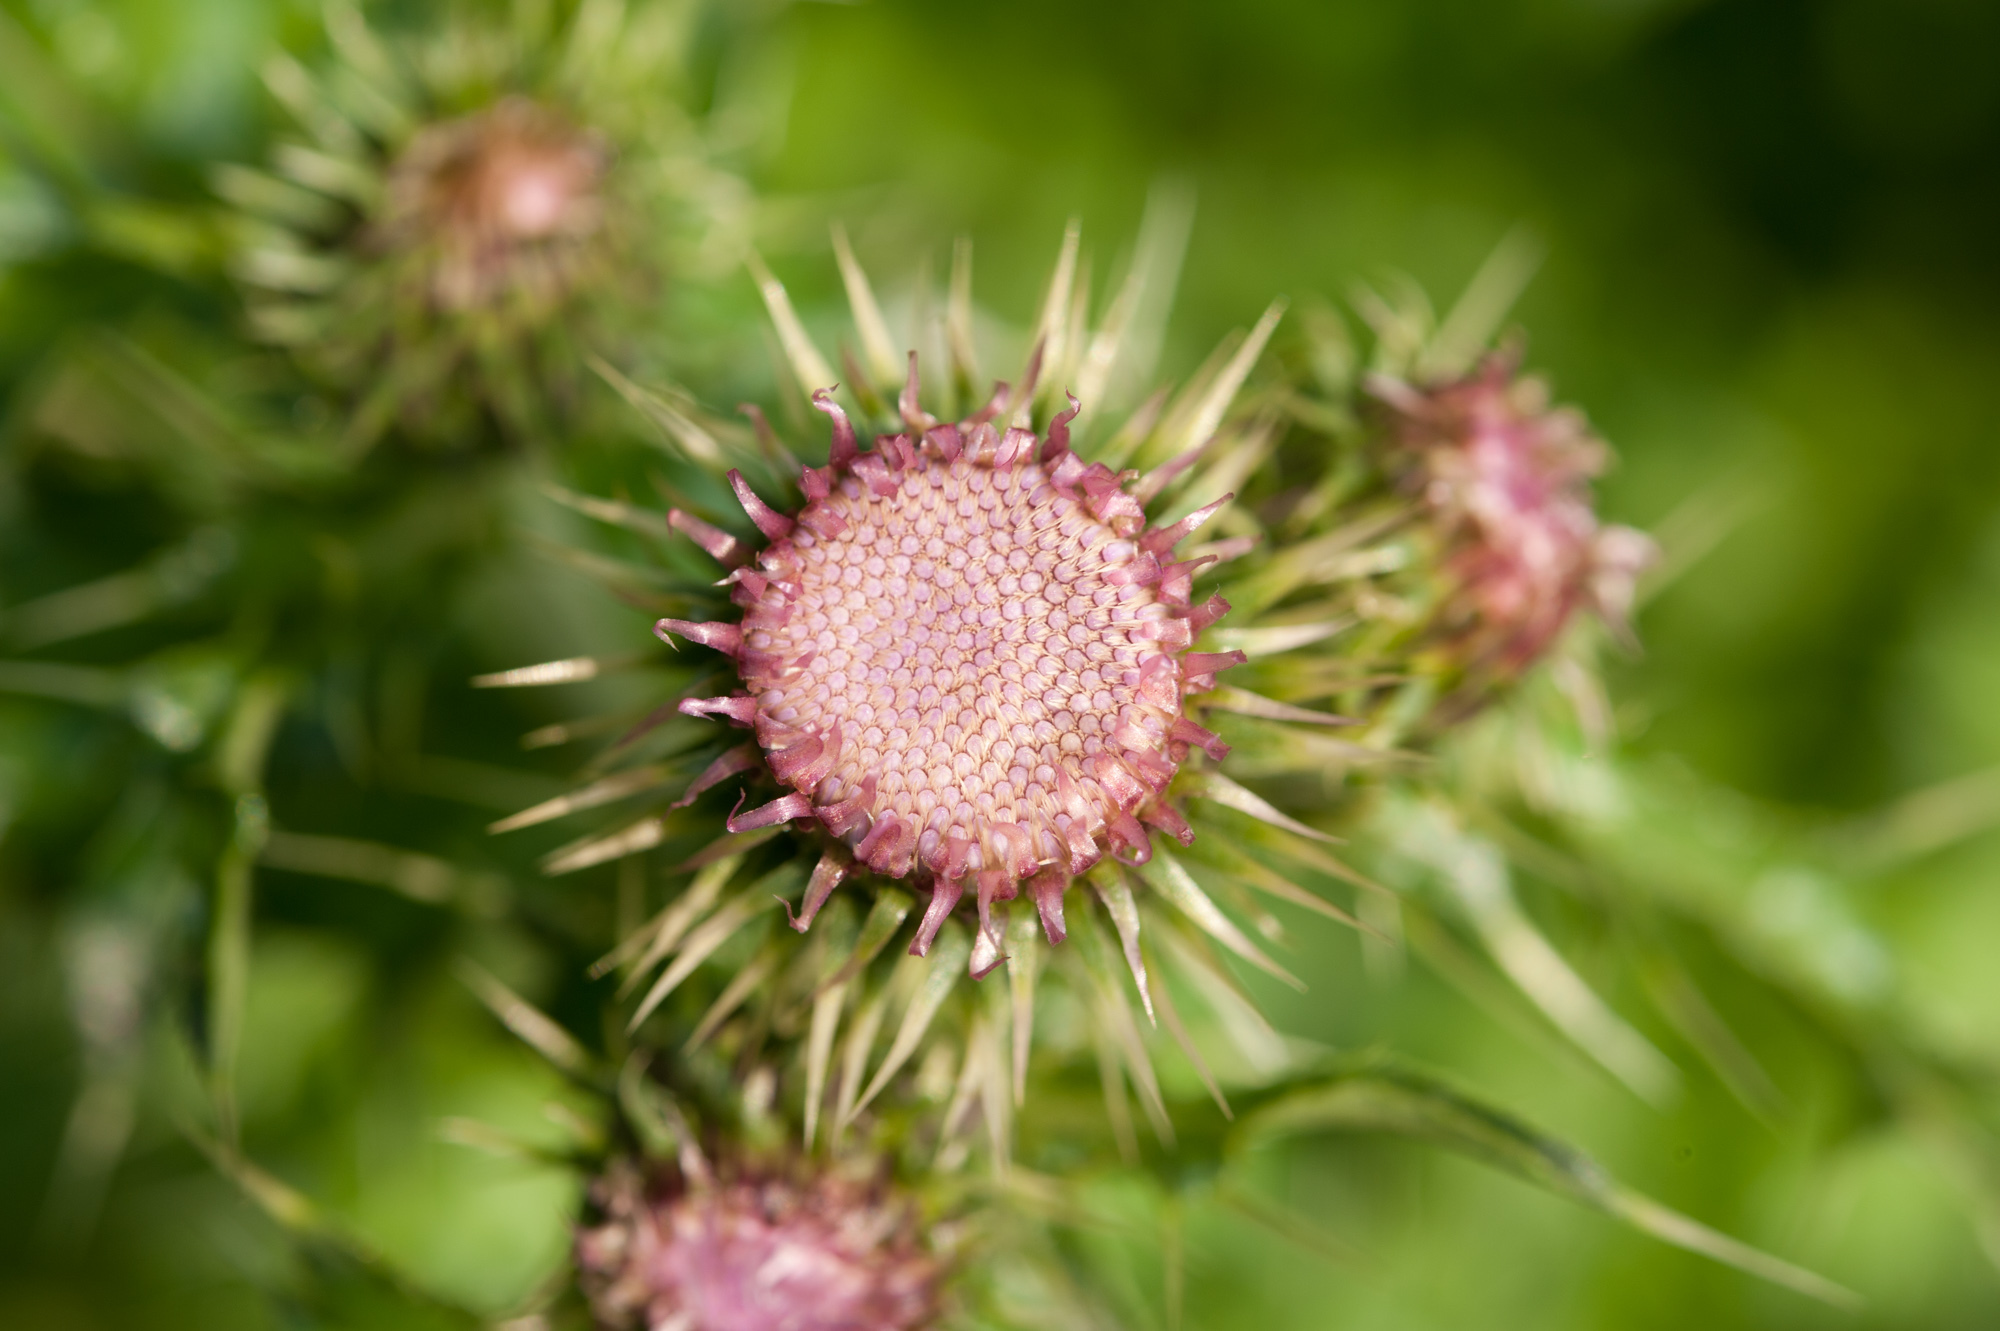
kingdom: Plantae
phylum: Tracheophyta
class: Magnoliopsida
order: Asterales
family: Asteraceae
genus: Cirsium
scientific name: Cirsium japonicum
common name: Japanese thistle
